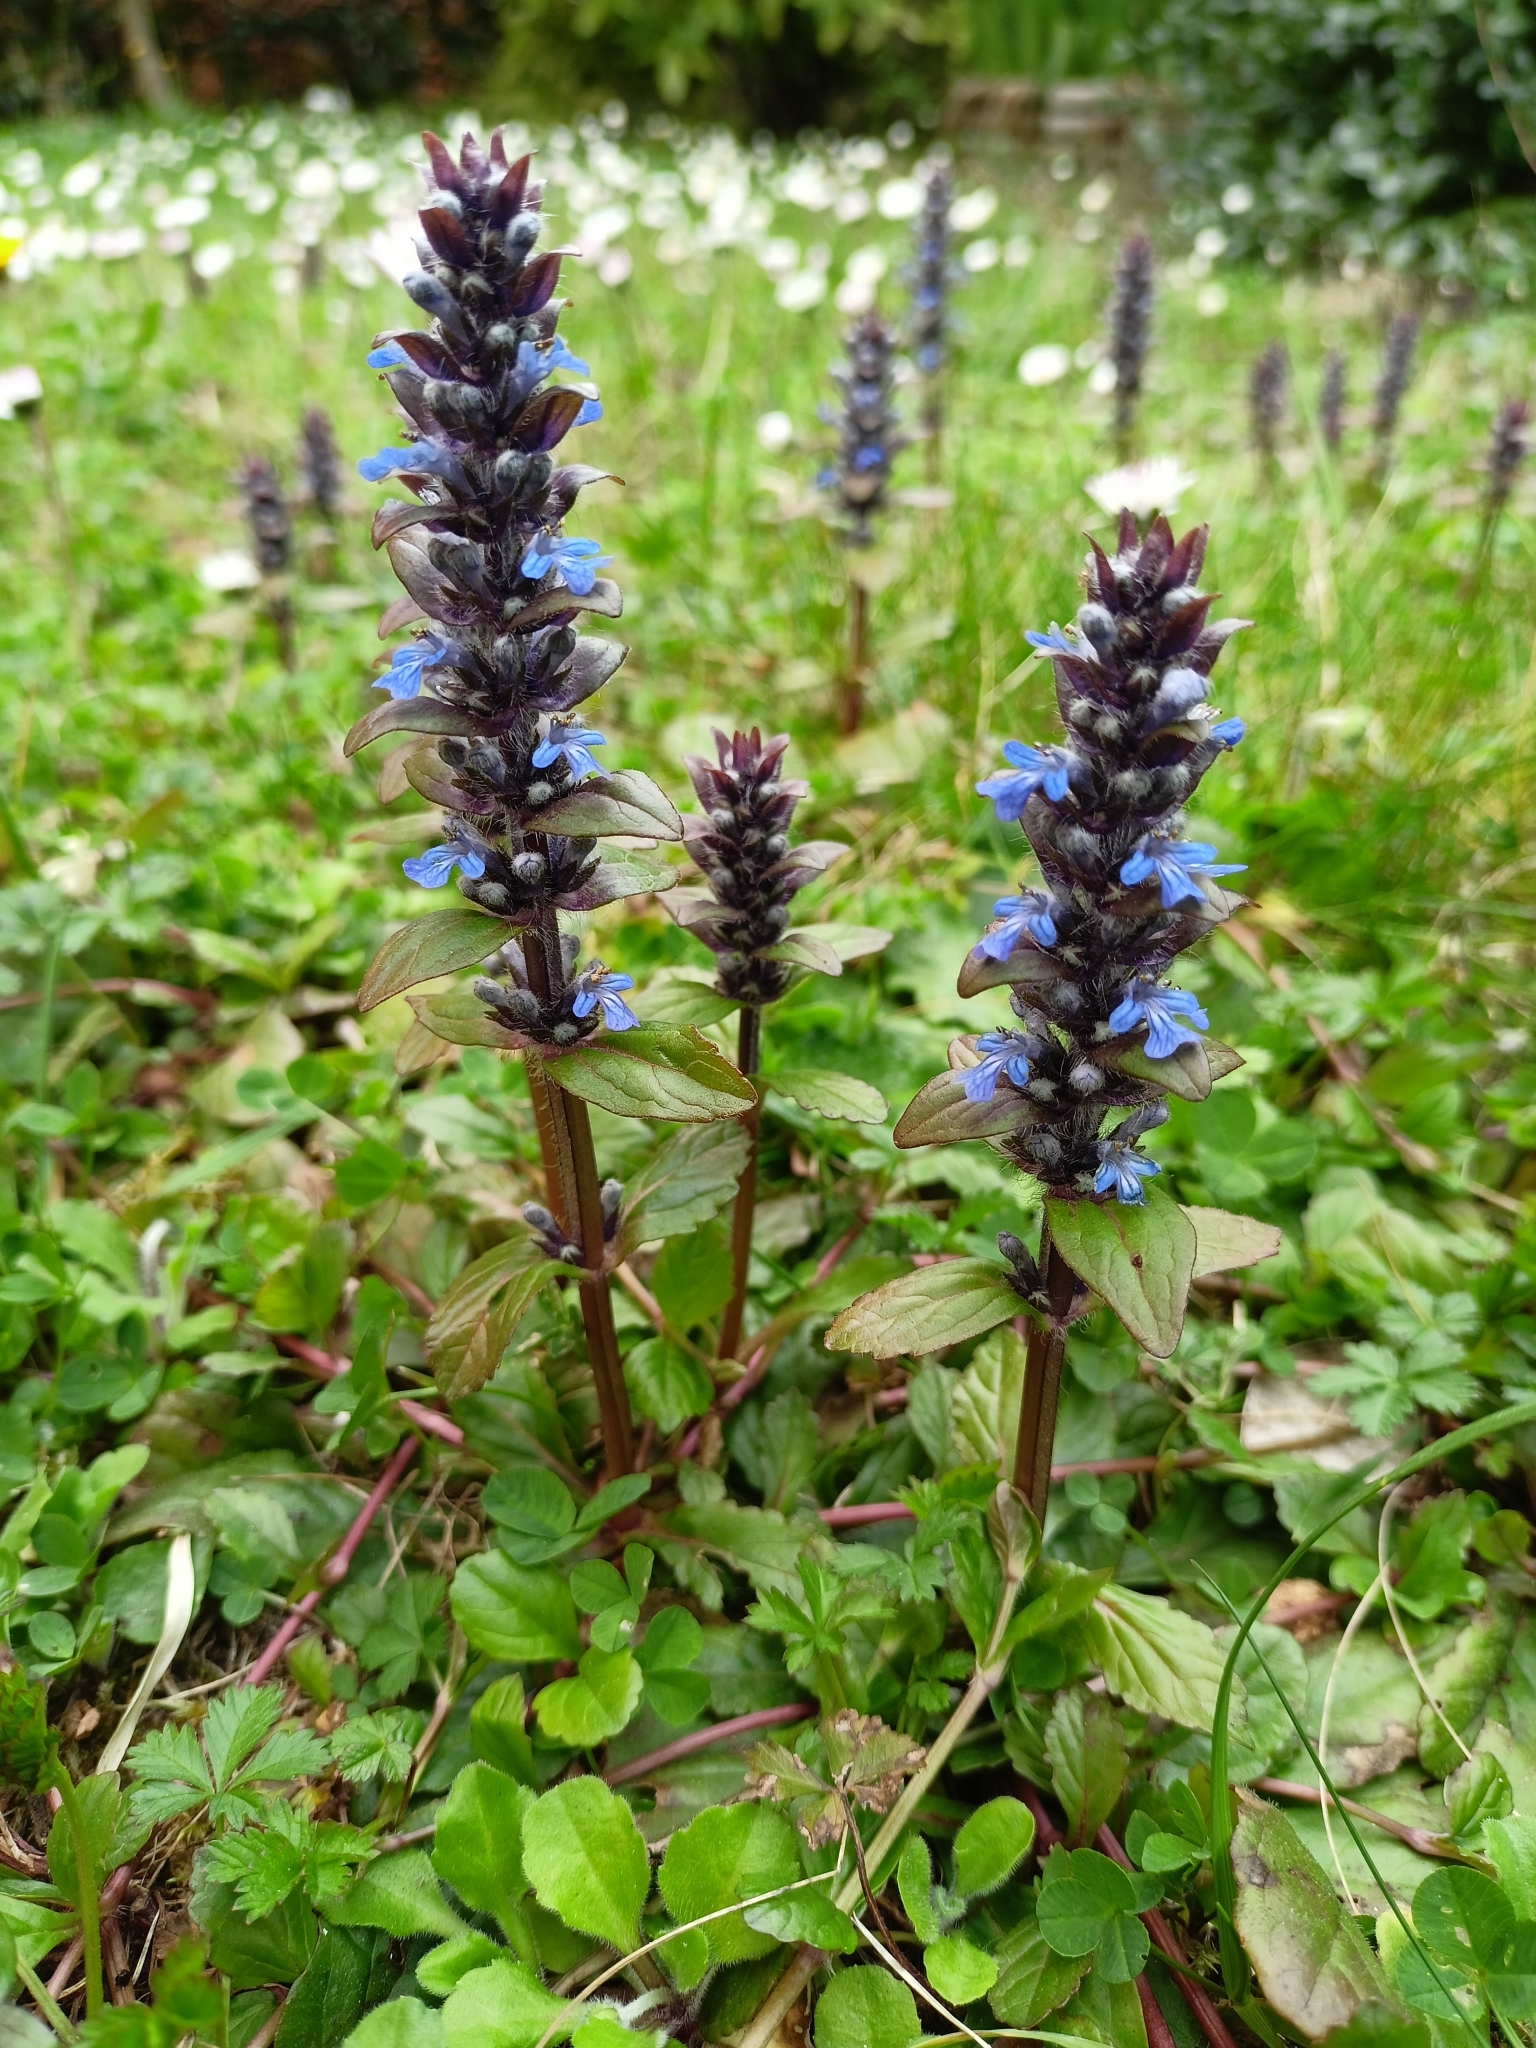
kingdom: Plantae
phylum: Tracheophyta
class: Magnoliopsida
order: Lamiales
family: Lamiaceae
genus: Ajuga
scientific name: Ajuga reptans
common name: Bugle
